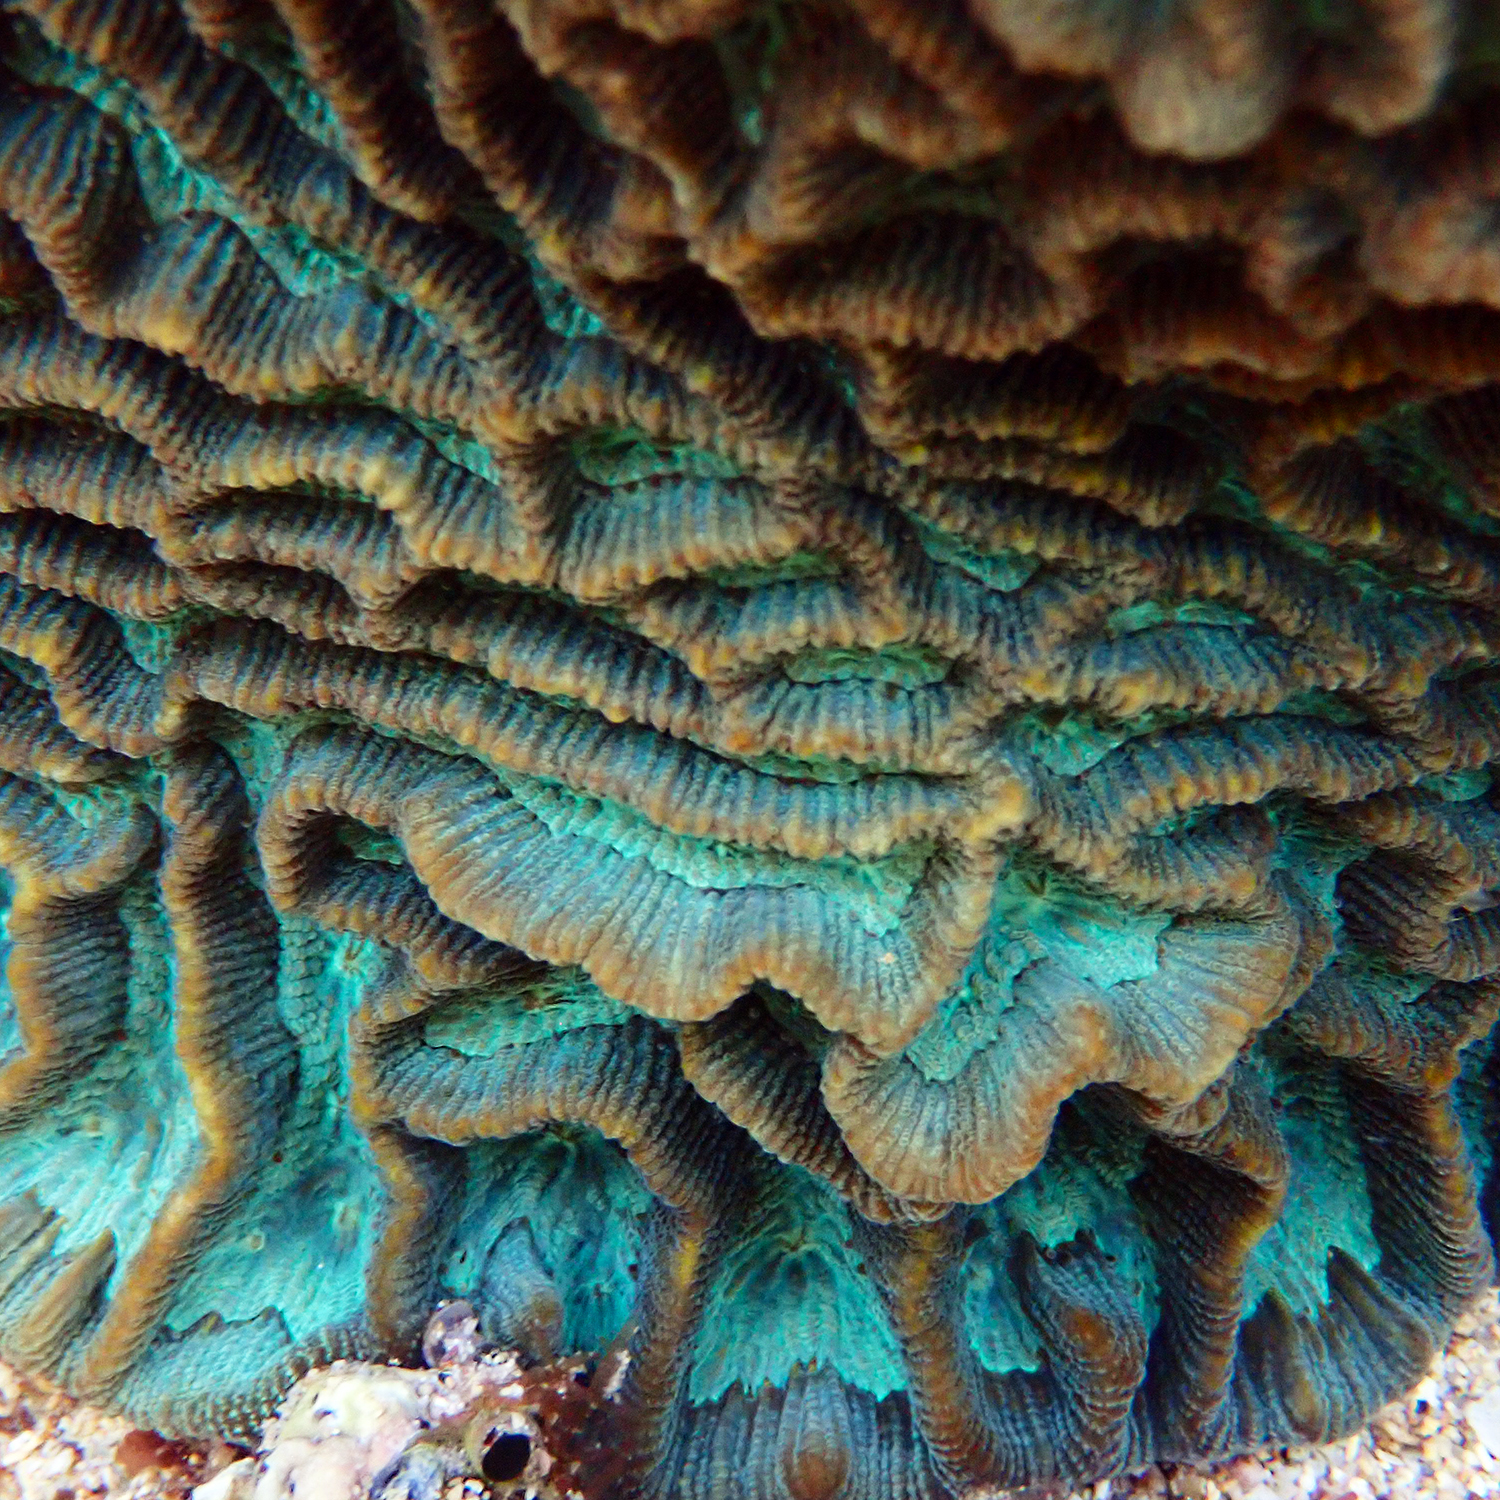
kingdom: Animalia
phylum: Cnidaria
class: Anthozoa
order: Scleractinia
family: Merulinidae
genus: Paragoniastrea
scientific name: Paragoniastrea australensis
